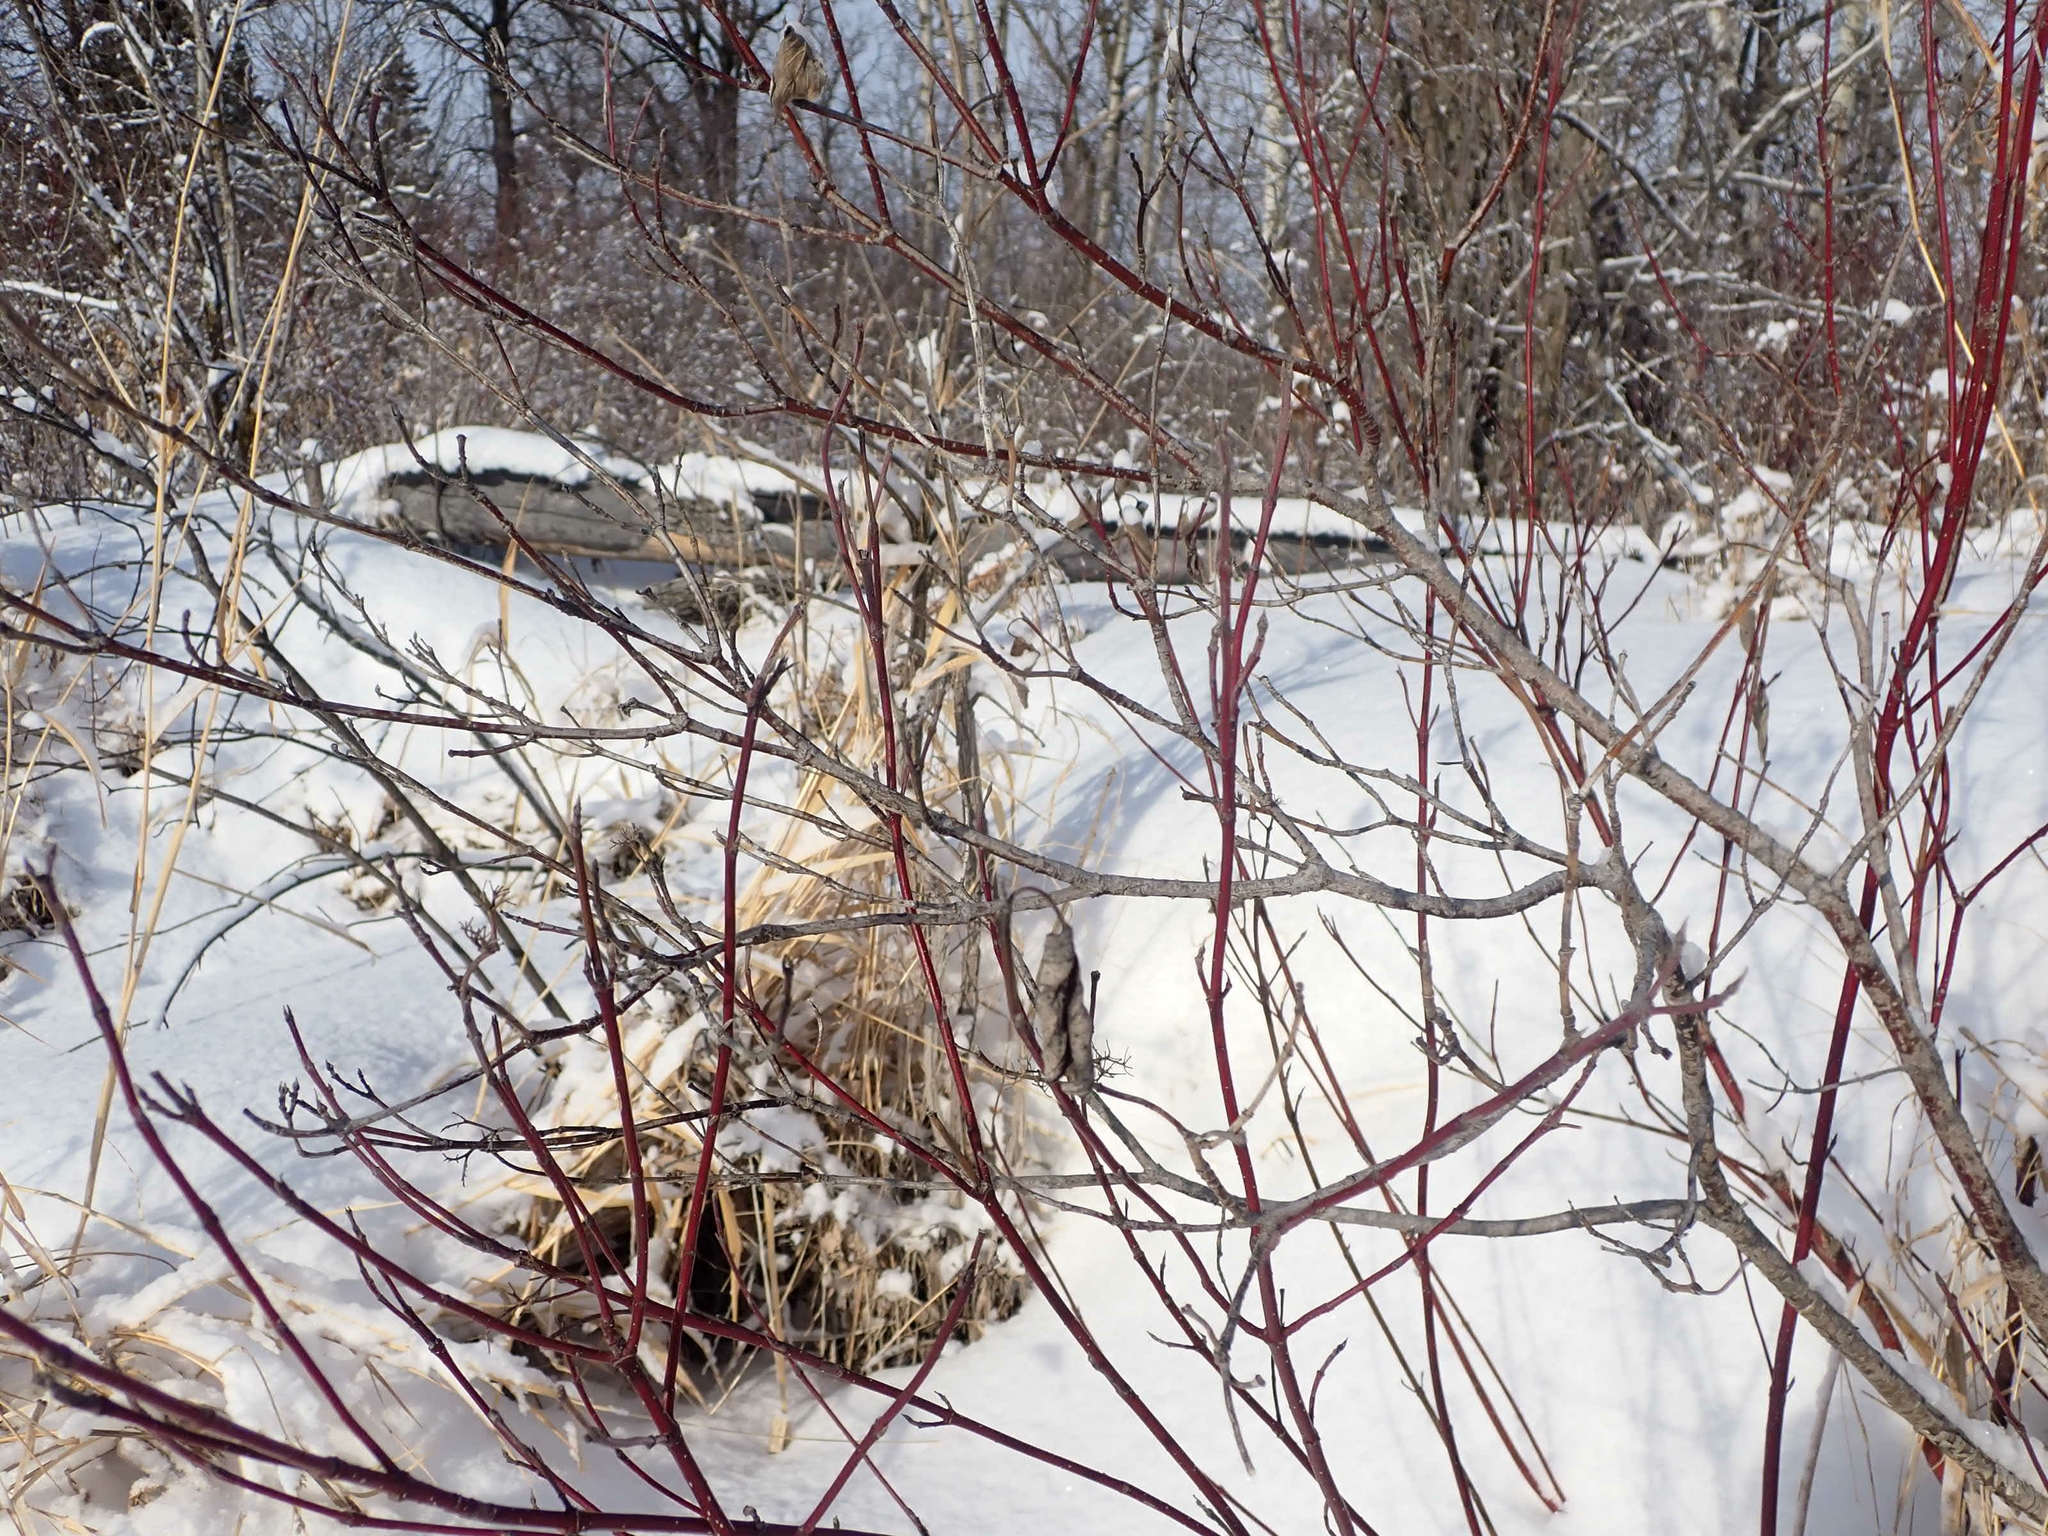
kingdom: Plantae
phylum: Tracheophyta
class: Magnoliopsida
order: Cornales
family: Cornaceae
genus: Cornus
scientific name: Cornus sericea
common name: Red-osier dogwood
